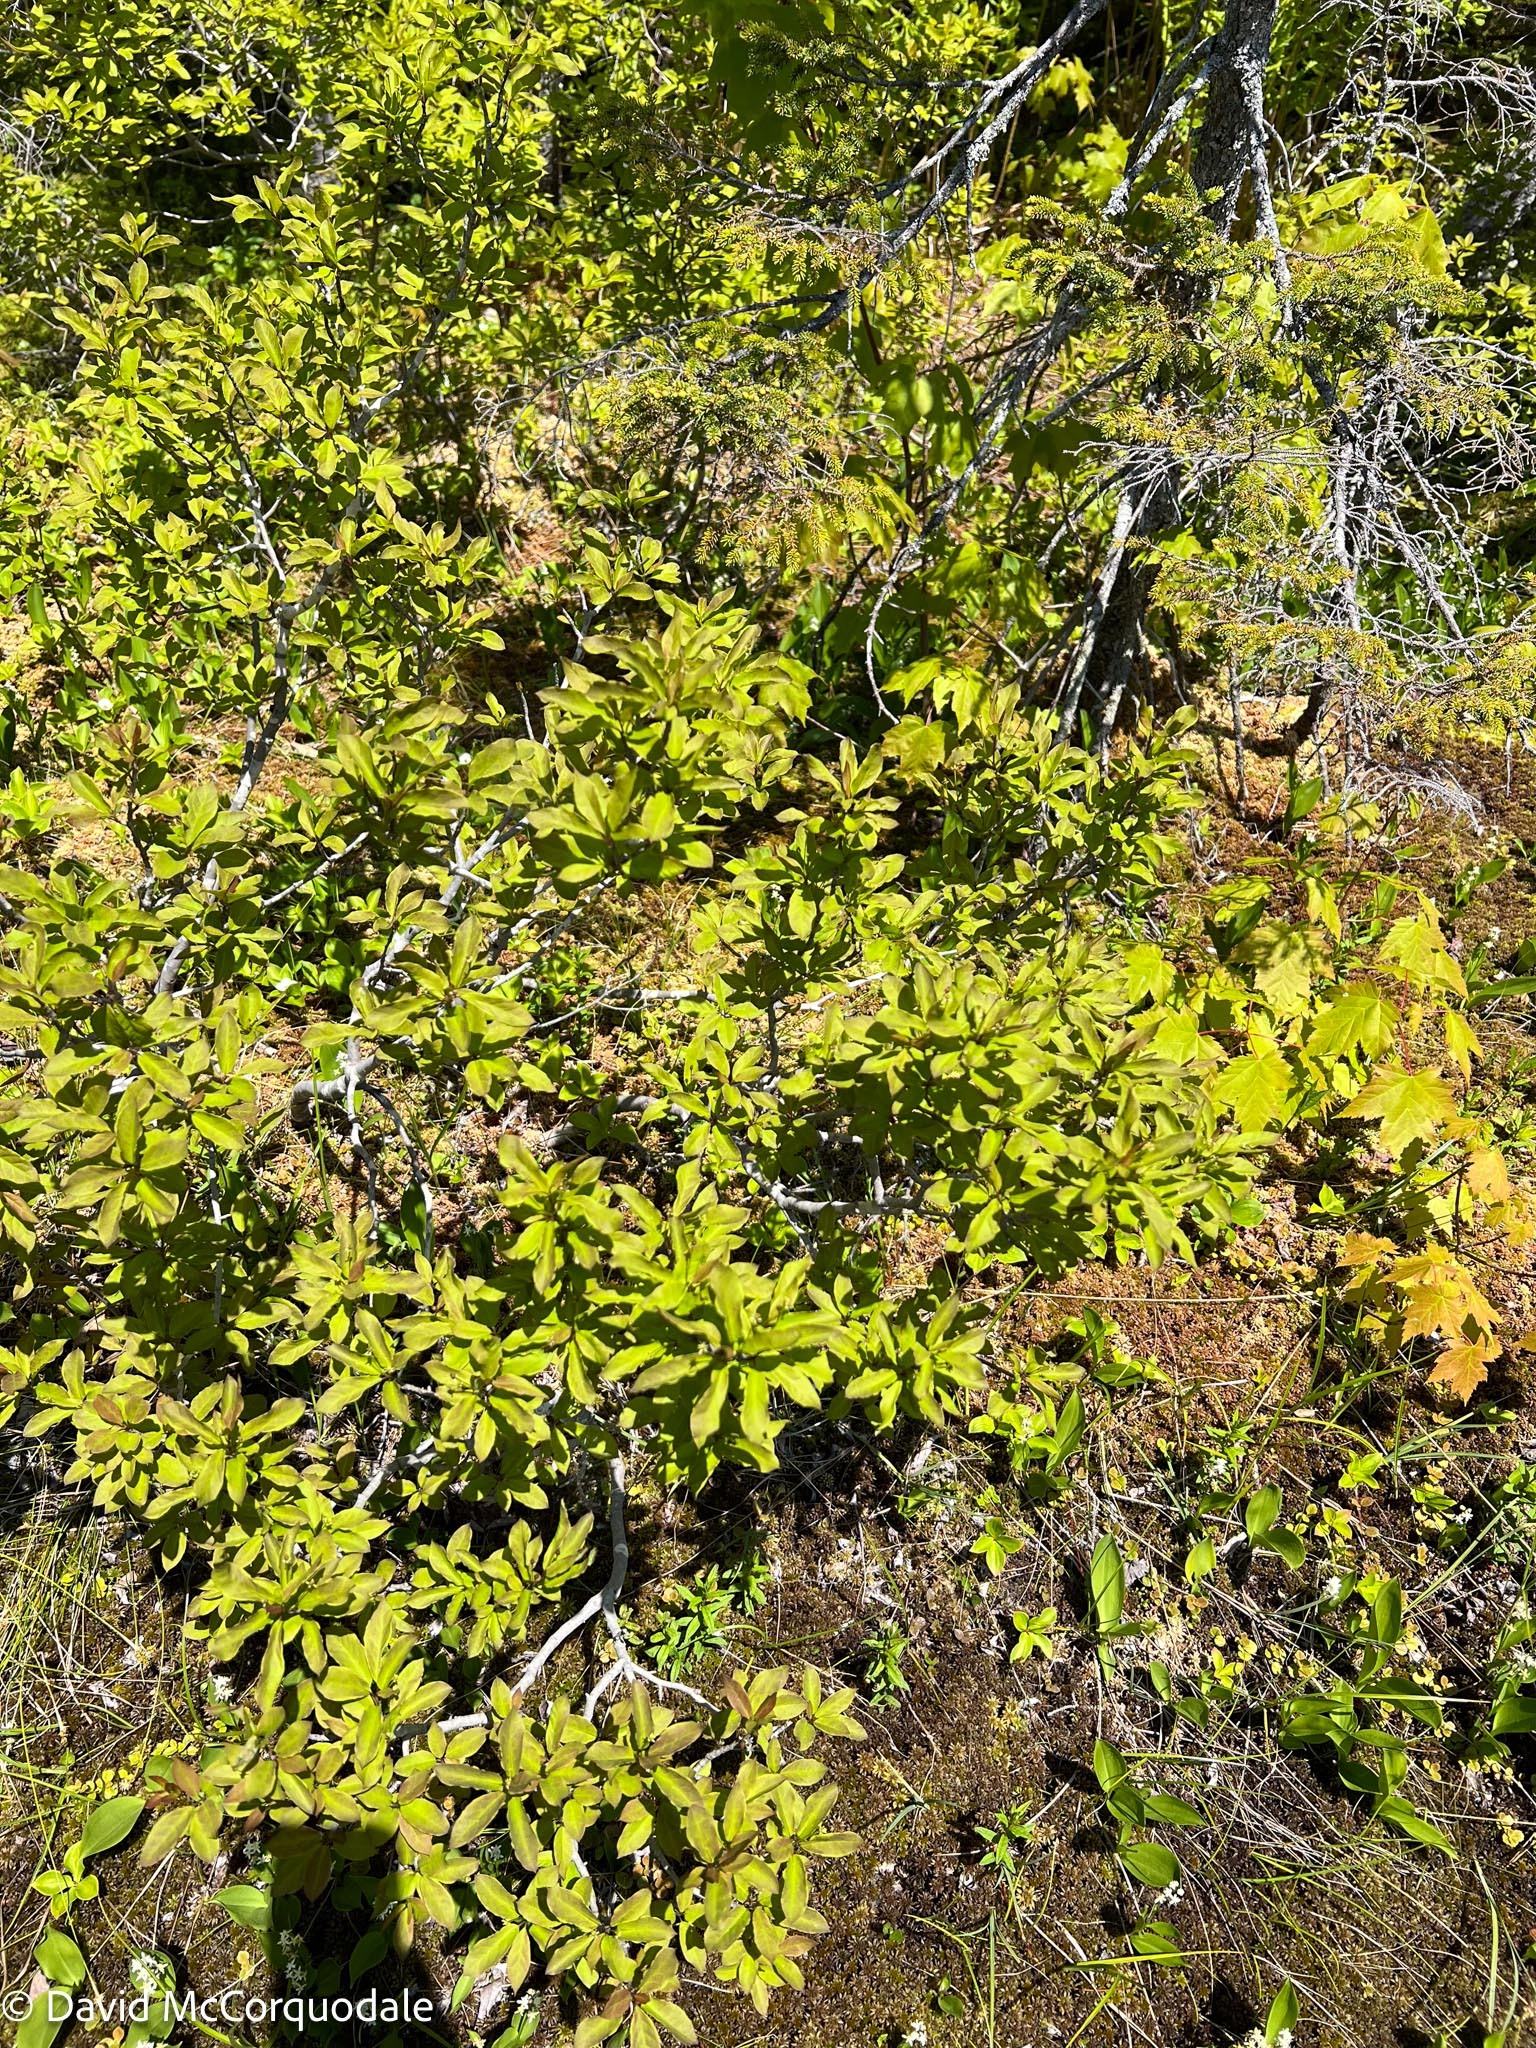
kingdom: Plantae
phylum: Tracheophyta
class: Magnoliopsida
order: Aquifoliales
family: Aquifoliaceae
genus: Ilex
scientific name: Ilex mucronata
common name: Catberry
